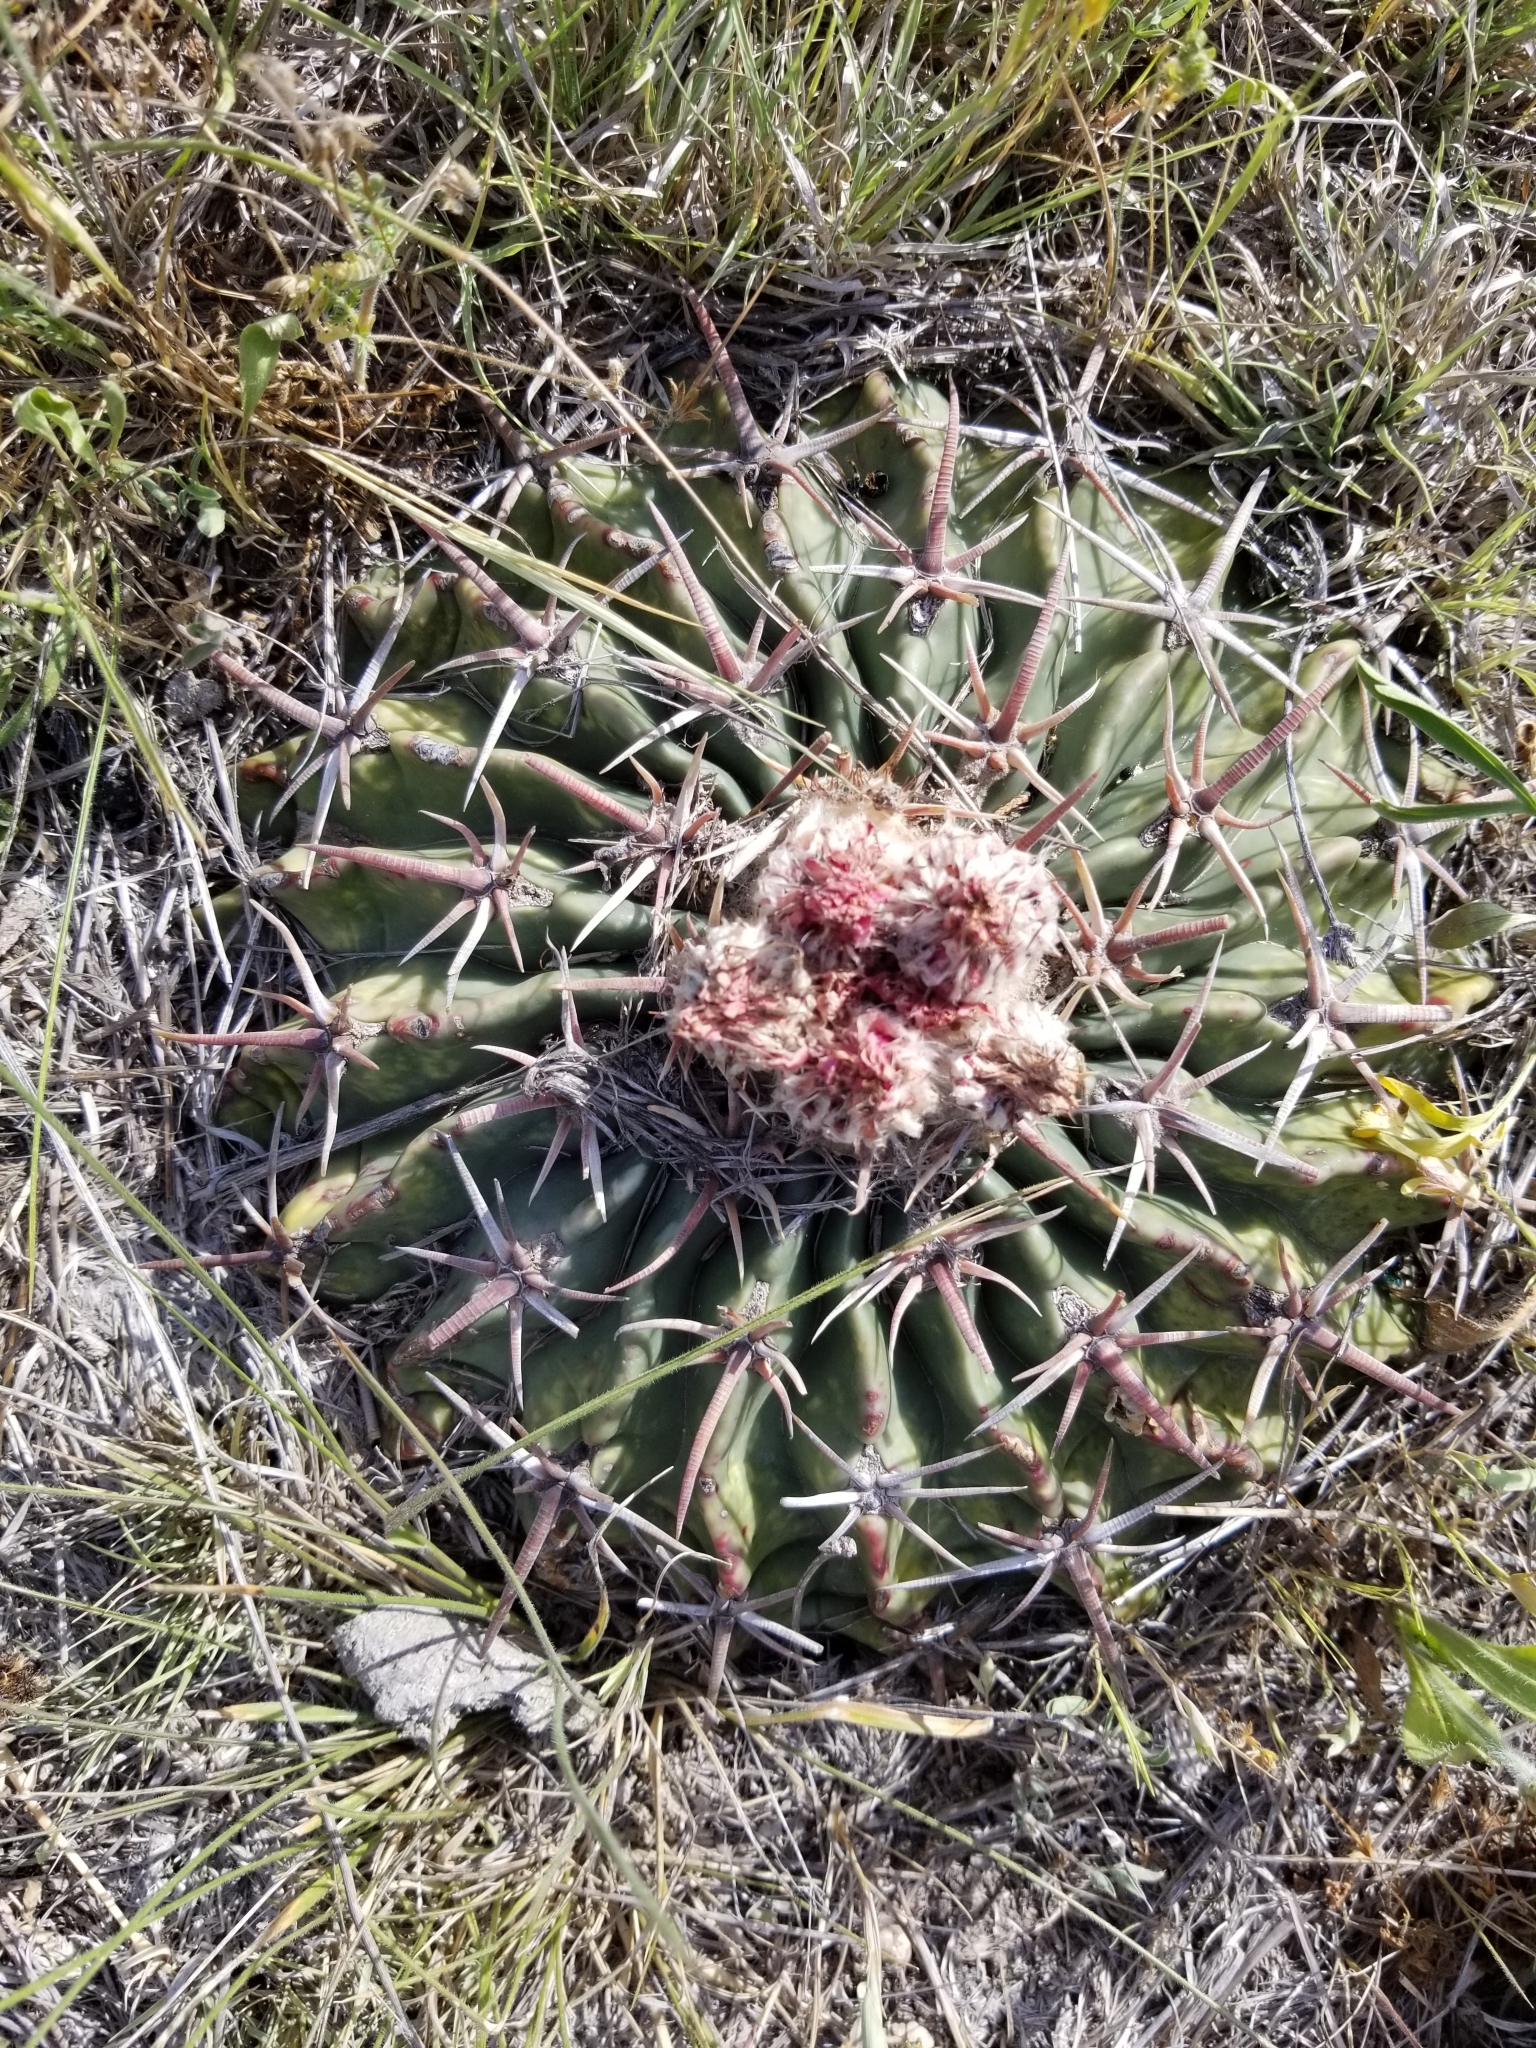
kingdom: Plantae
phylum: Tracheophyta
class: Magnoliopsida
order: Caryophyllales
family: Cactaceae
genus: Echinocactus
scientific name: Echinocactus texensis
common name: Devil's pincushion
